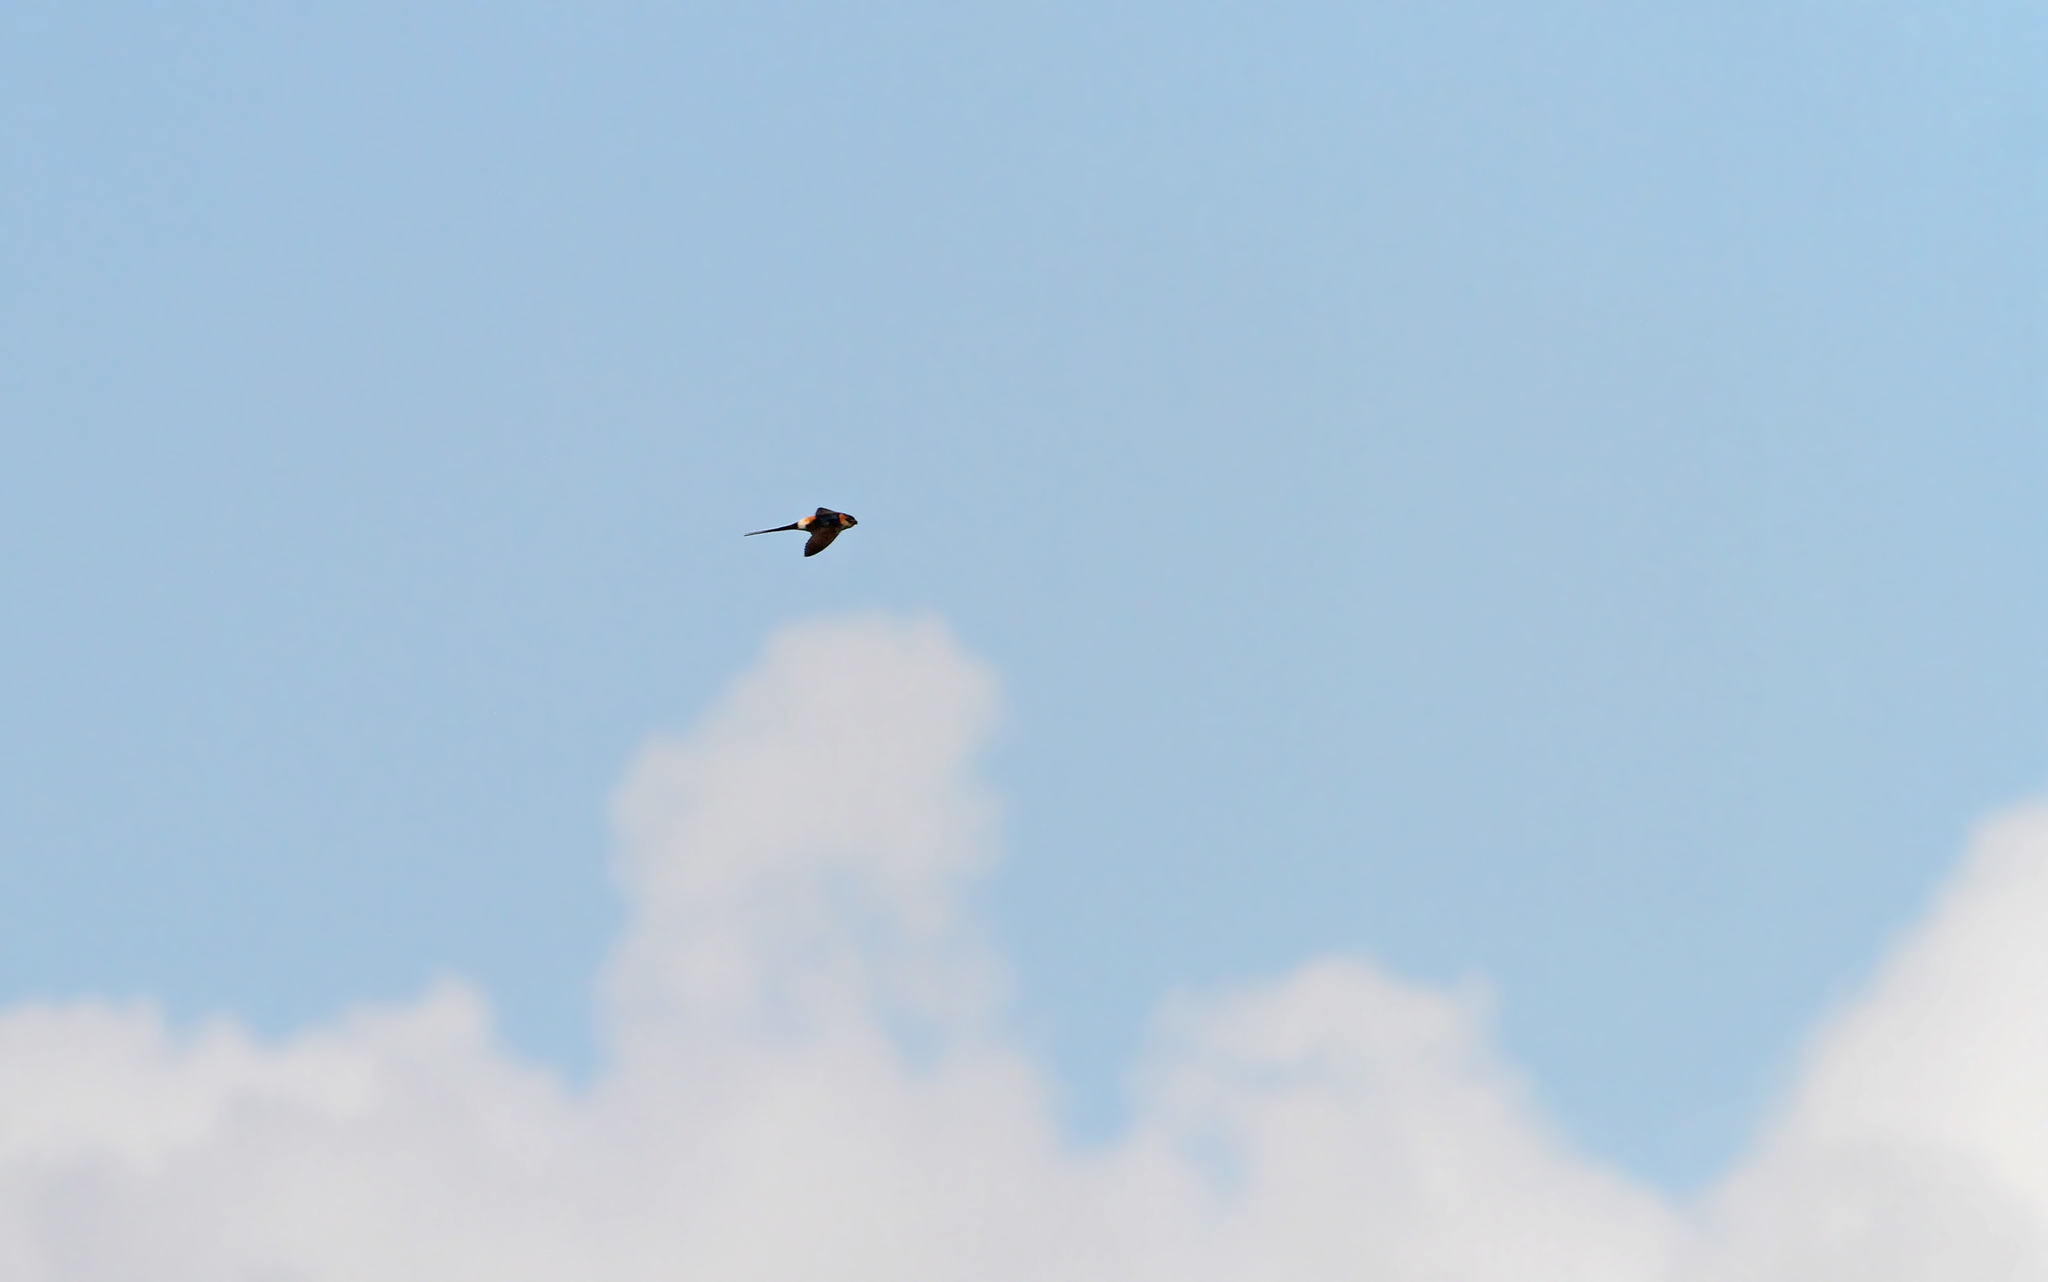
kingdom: Animalia
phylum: Chordata
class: Aves
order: Passeriformes
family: Hirundinidae
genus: Cecropis
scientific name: Cecropis daurica
